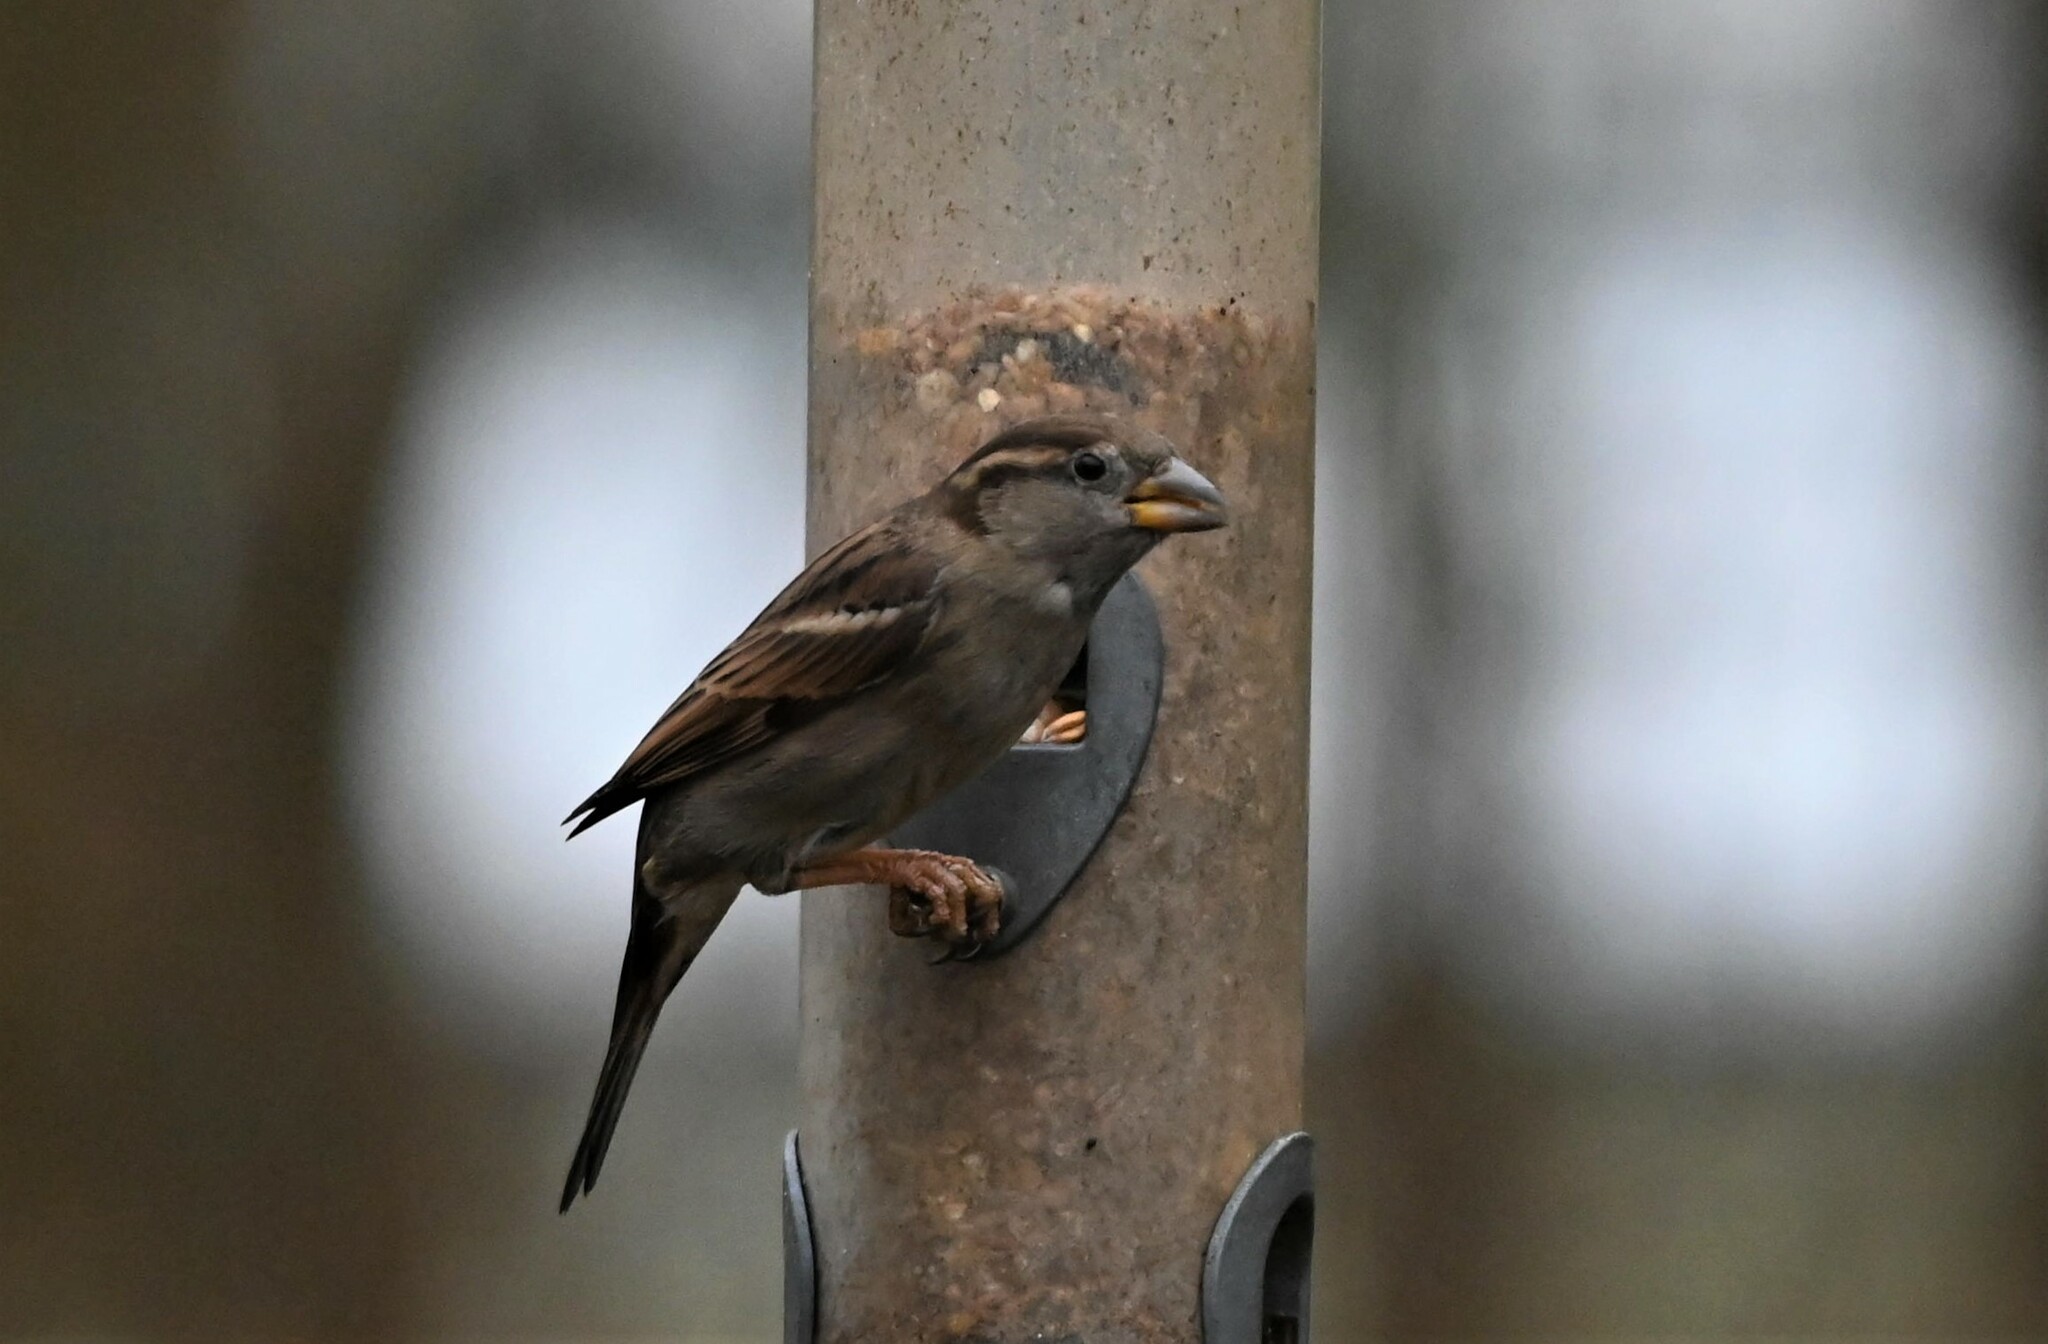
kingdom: Animalia
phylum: Chordata
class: Aves
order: Passeriformes
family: Passeridae
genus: Passer
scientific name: Passer domesticus
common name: House sparrow
